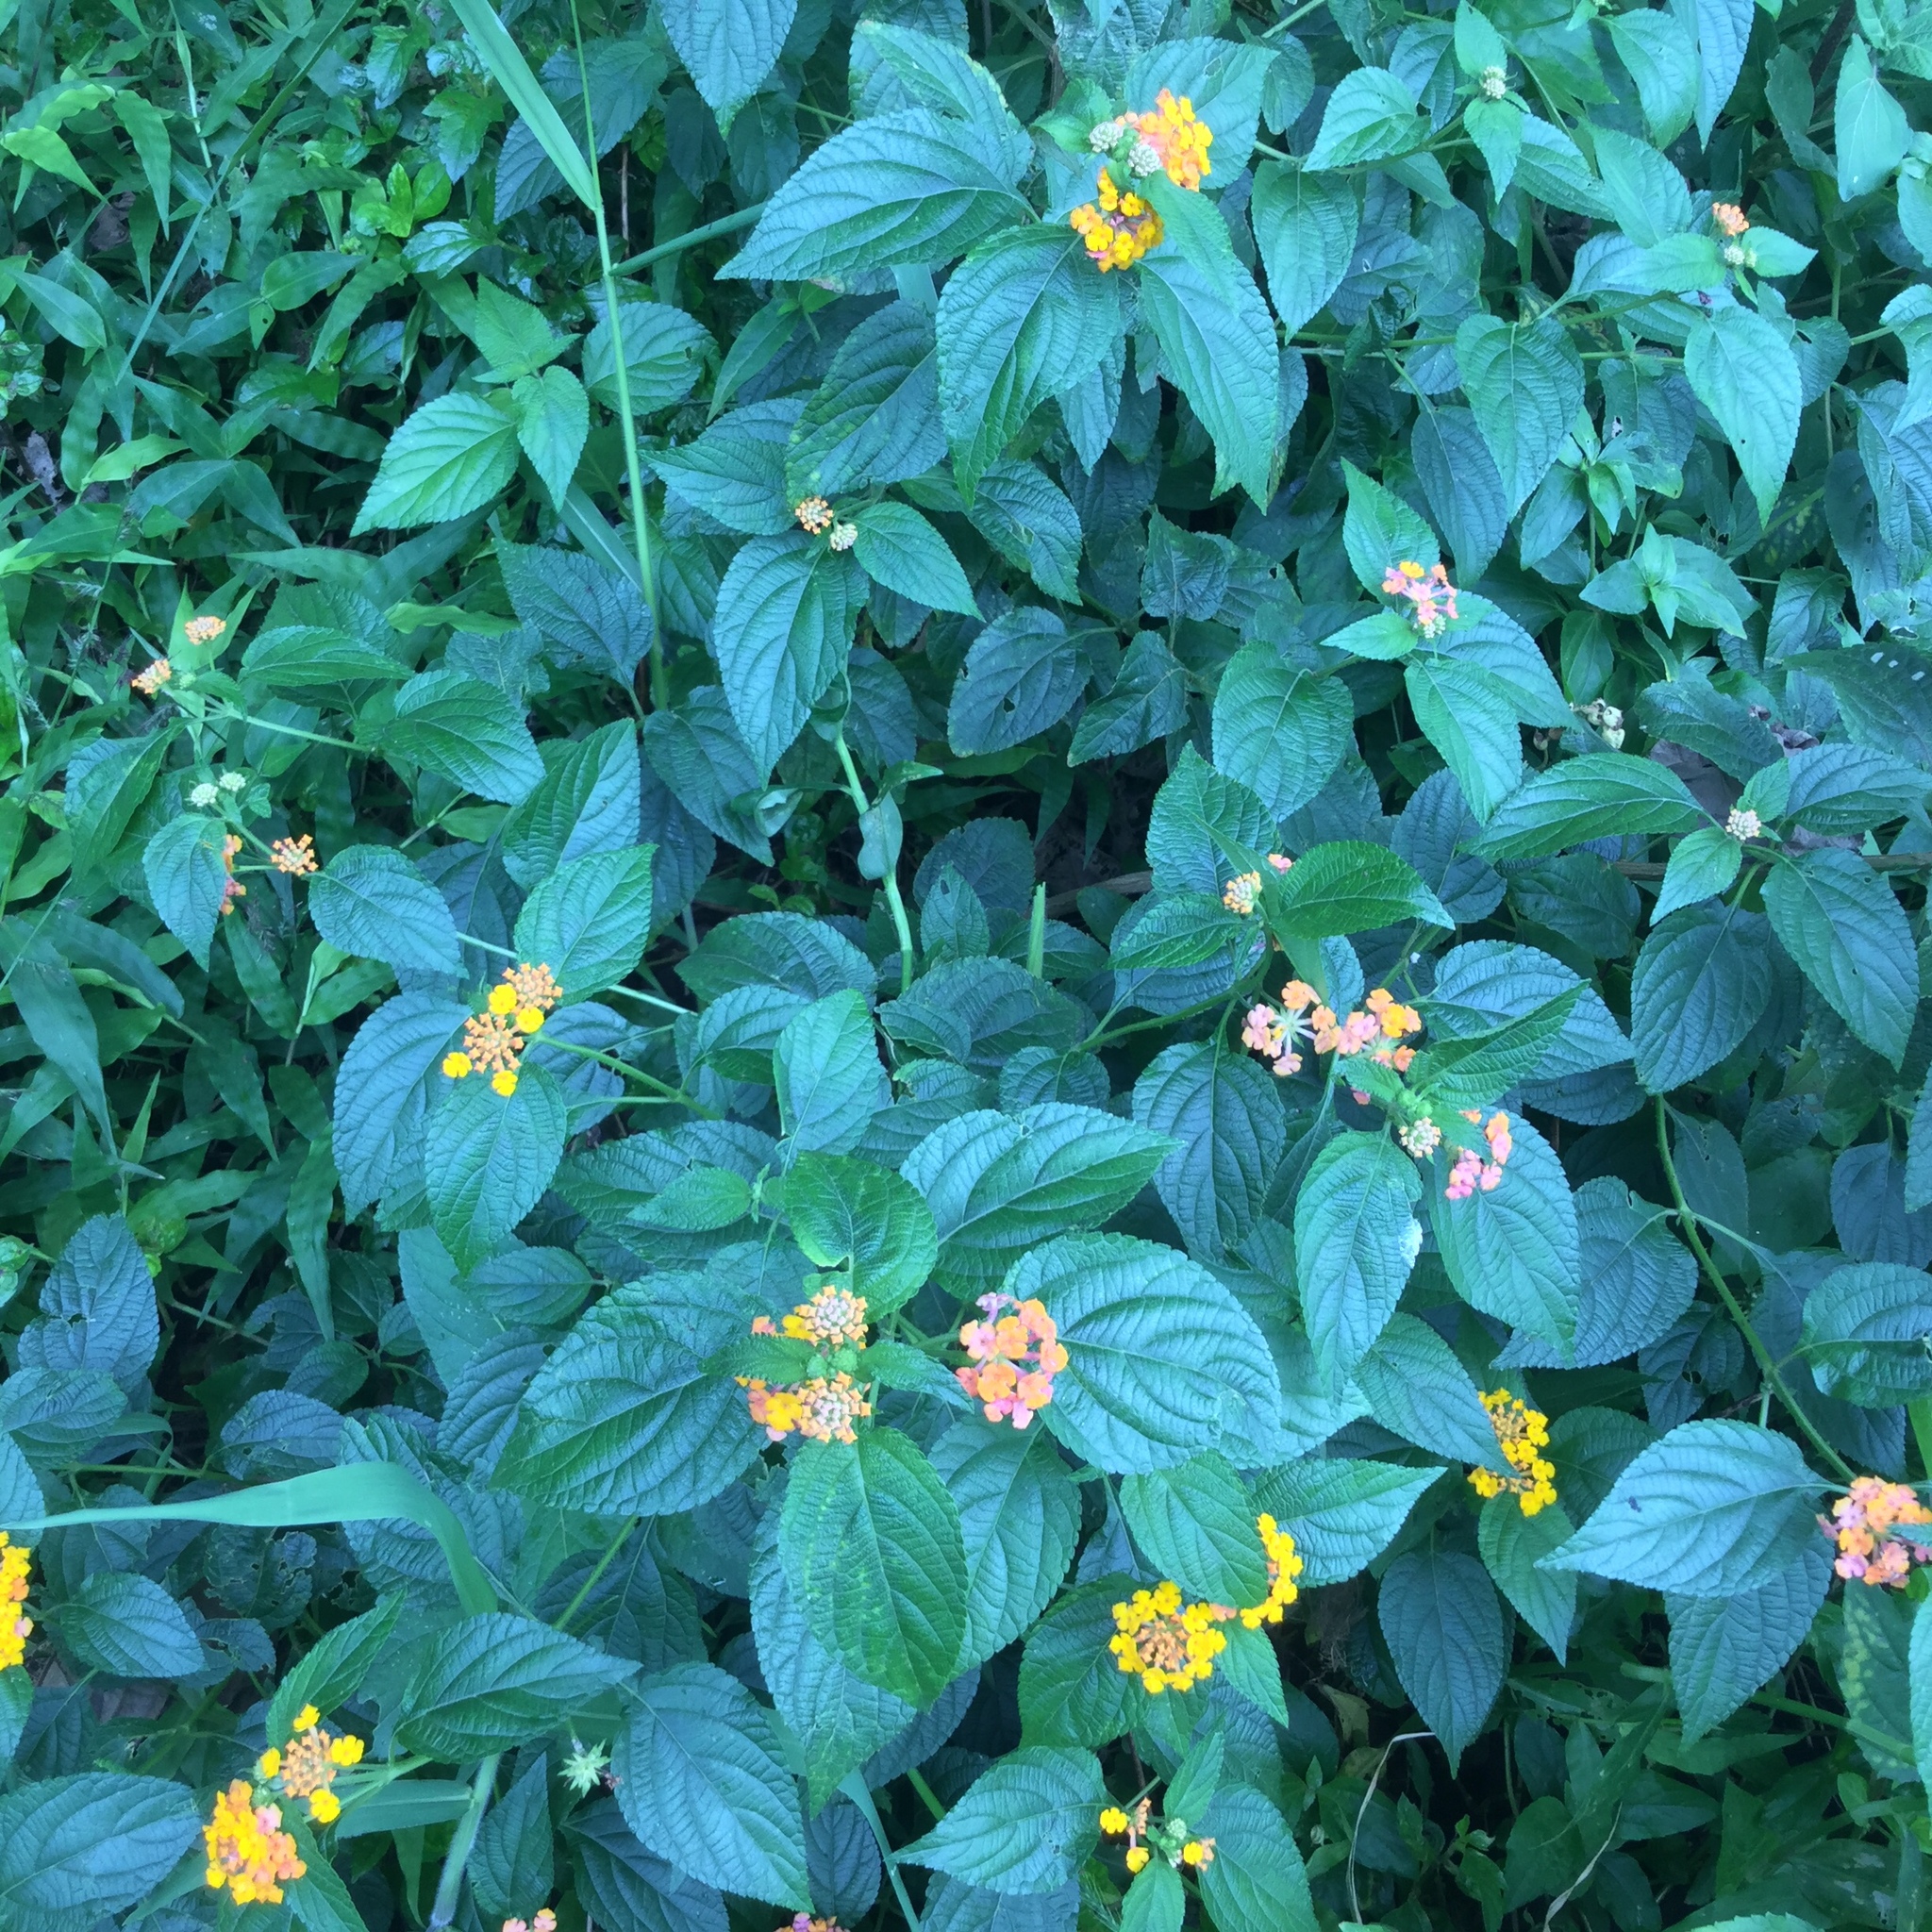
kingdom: Plantae
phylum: Tracheophyta
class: Magnoliopsida
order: Lamiales
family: Verbenaceae
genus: Lantana
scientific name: Lantana camara
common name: Lantana
